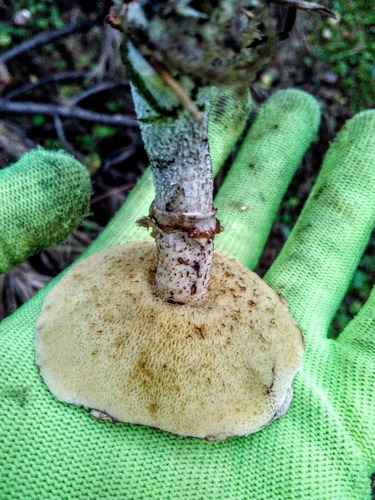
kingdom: Fungi
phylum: Basidiomycota
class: Agaricomycetes
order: Boletales
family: Suillaceae
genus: Suillus
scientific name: Suillus acidus
